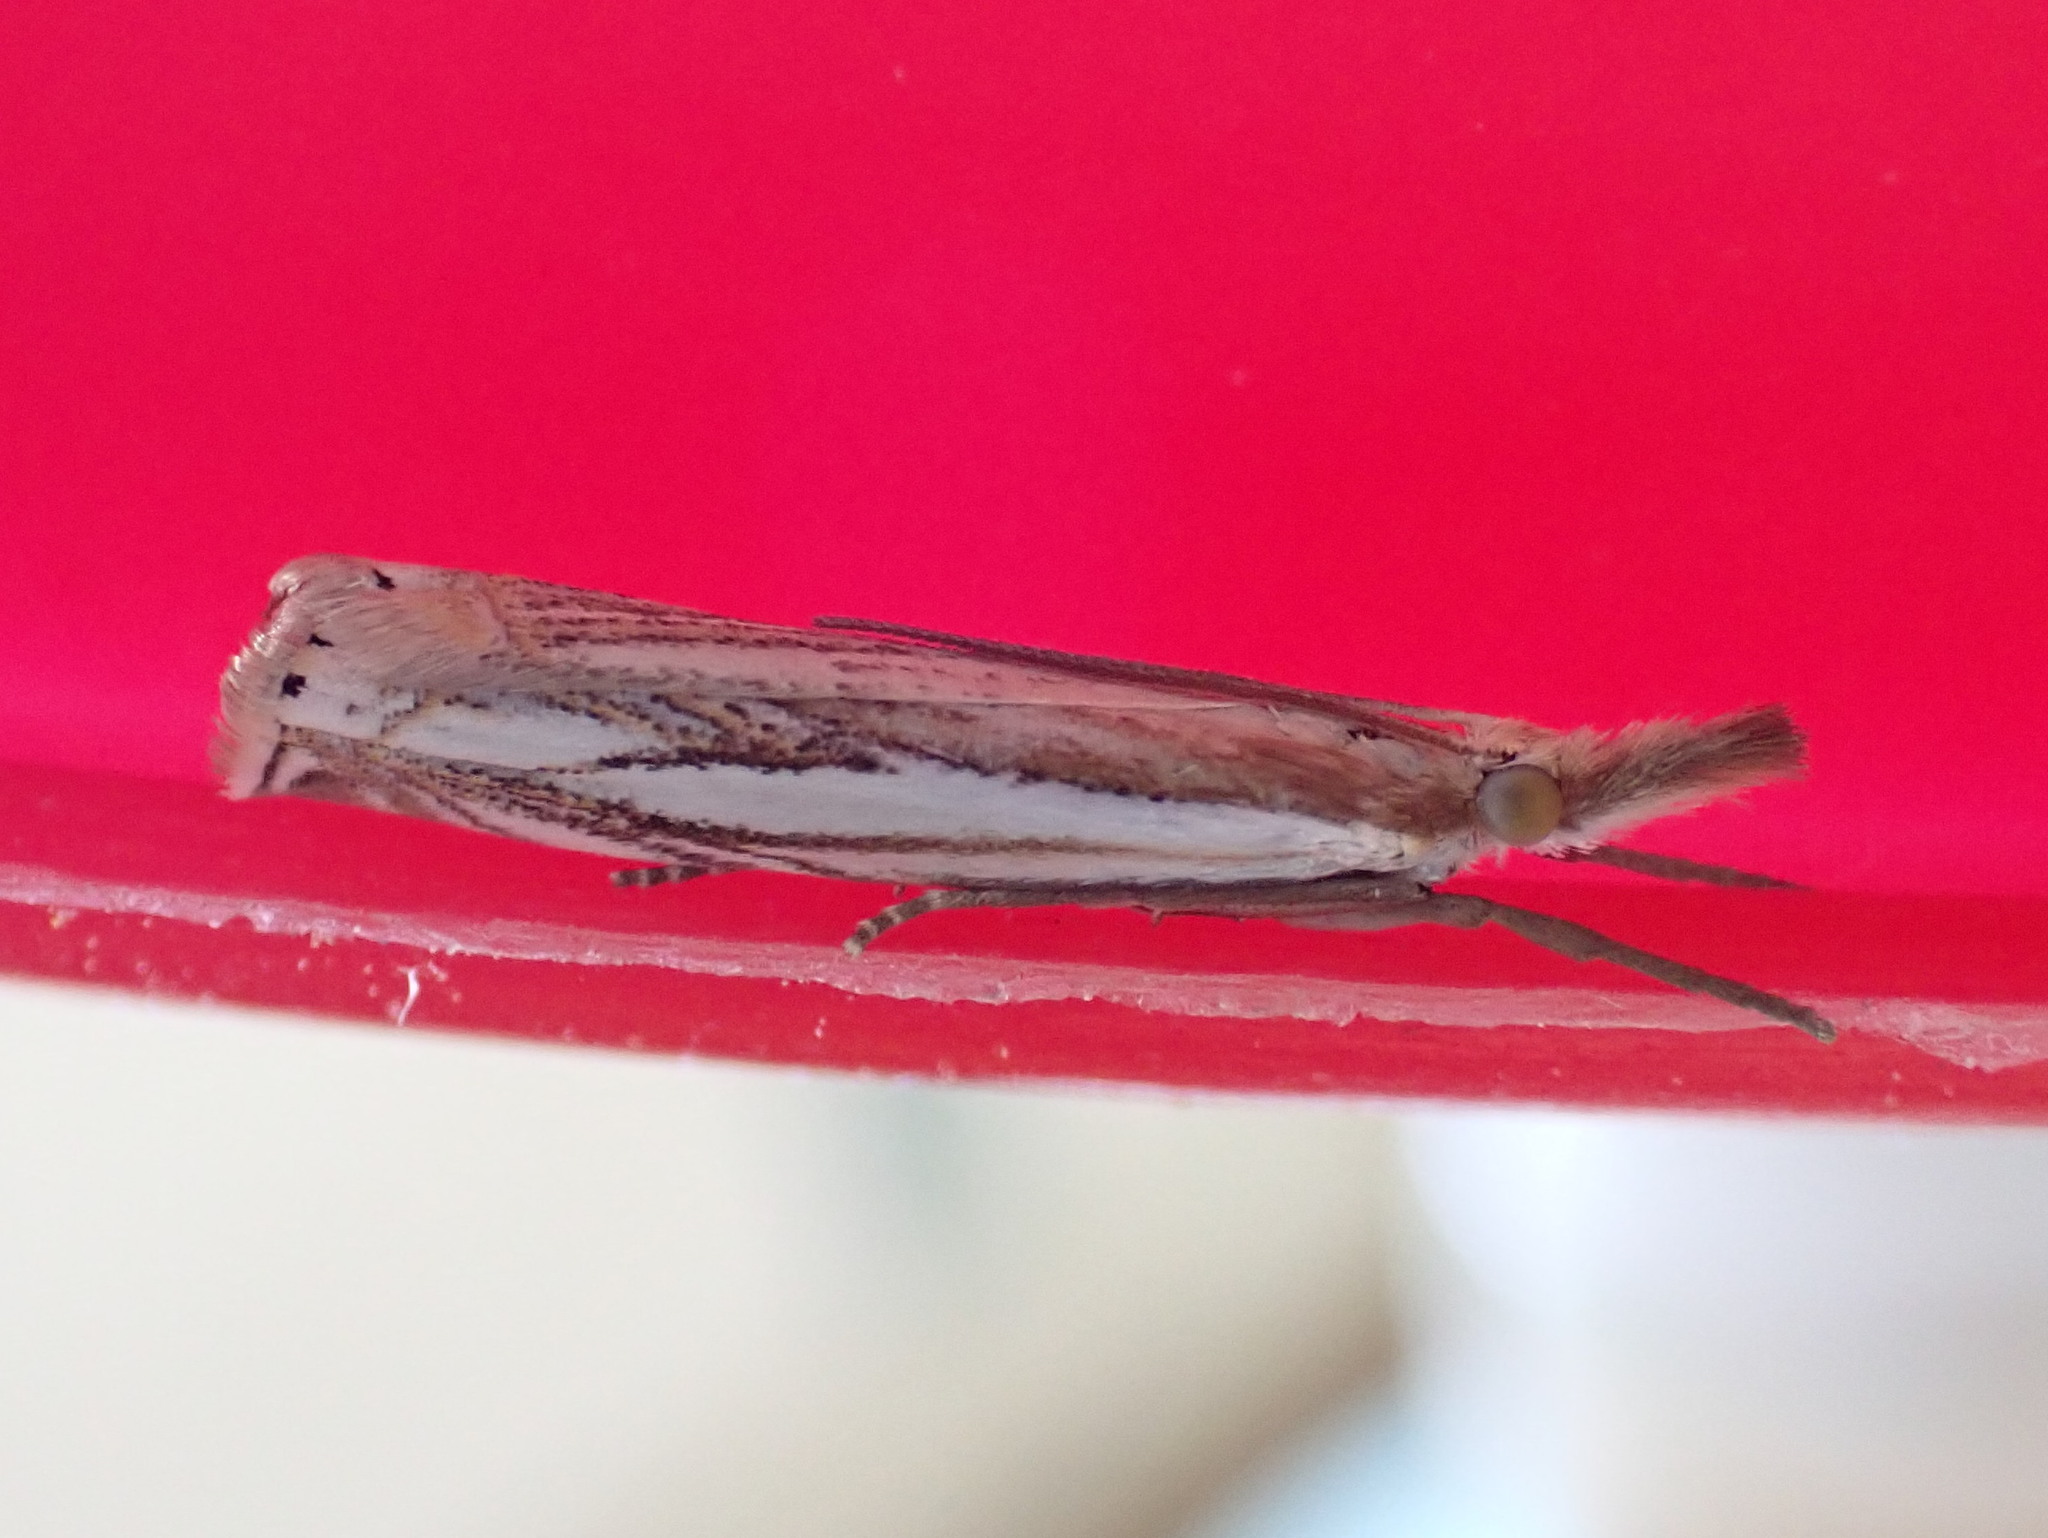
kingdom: Animalia
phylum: Arthropoda
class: Insecta
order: Lepidoptera
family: Crambidae
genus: Crambus
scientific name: Crambus saltuellus
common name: Pasture grass-veneer
